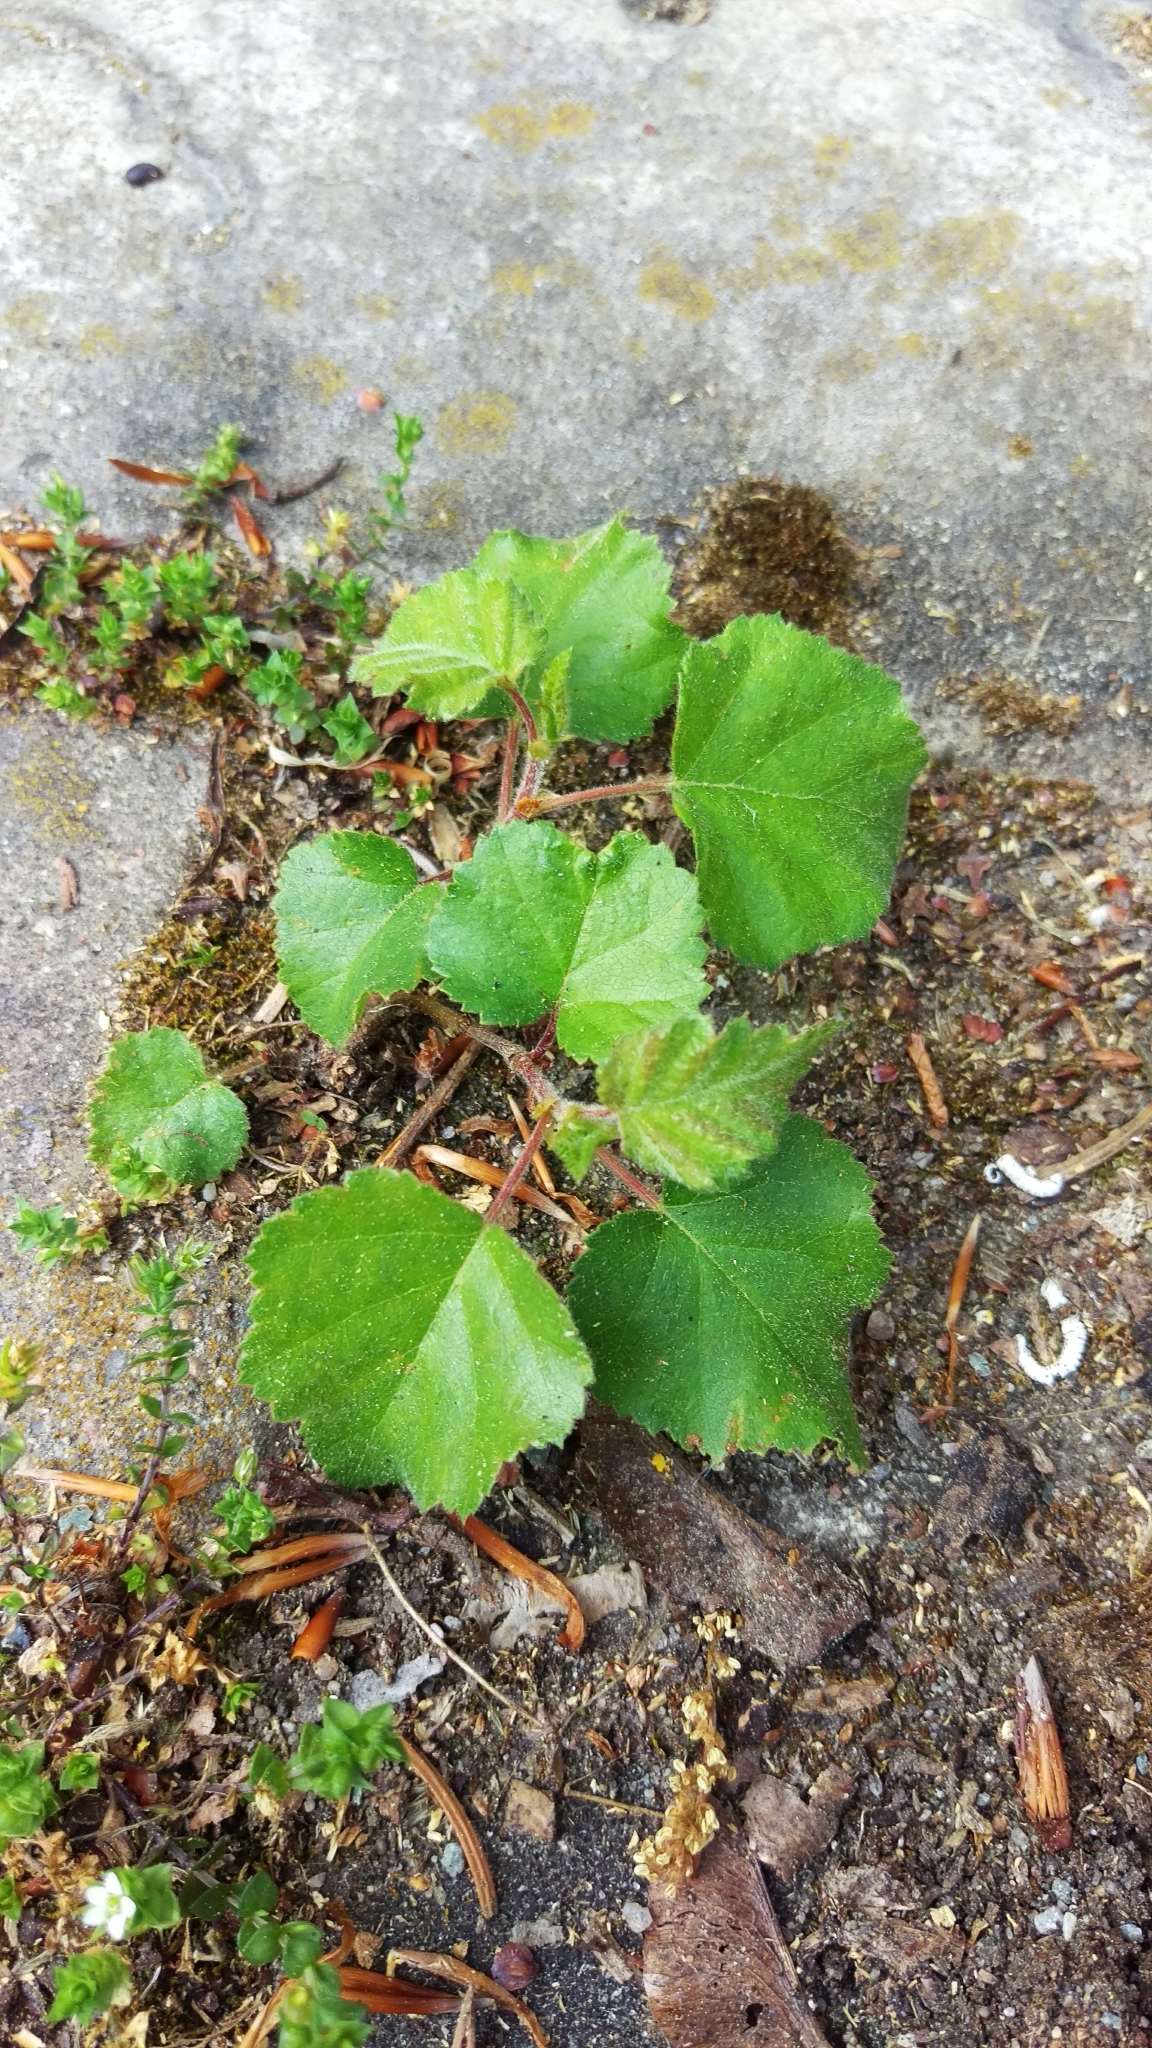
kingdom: Plantae
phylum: Tracheophyta
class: Magnoliopsida
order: Fagales
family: Betulaceae
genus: Betula
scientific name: Betula pendula
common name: Silver birch
